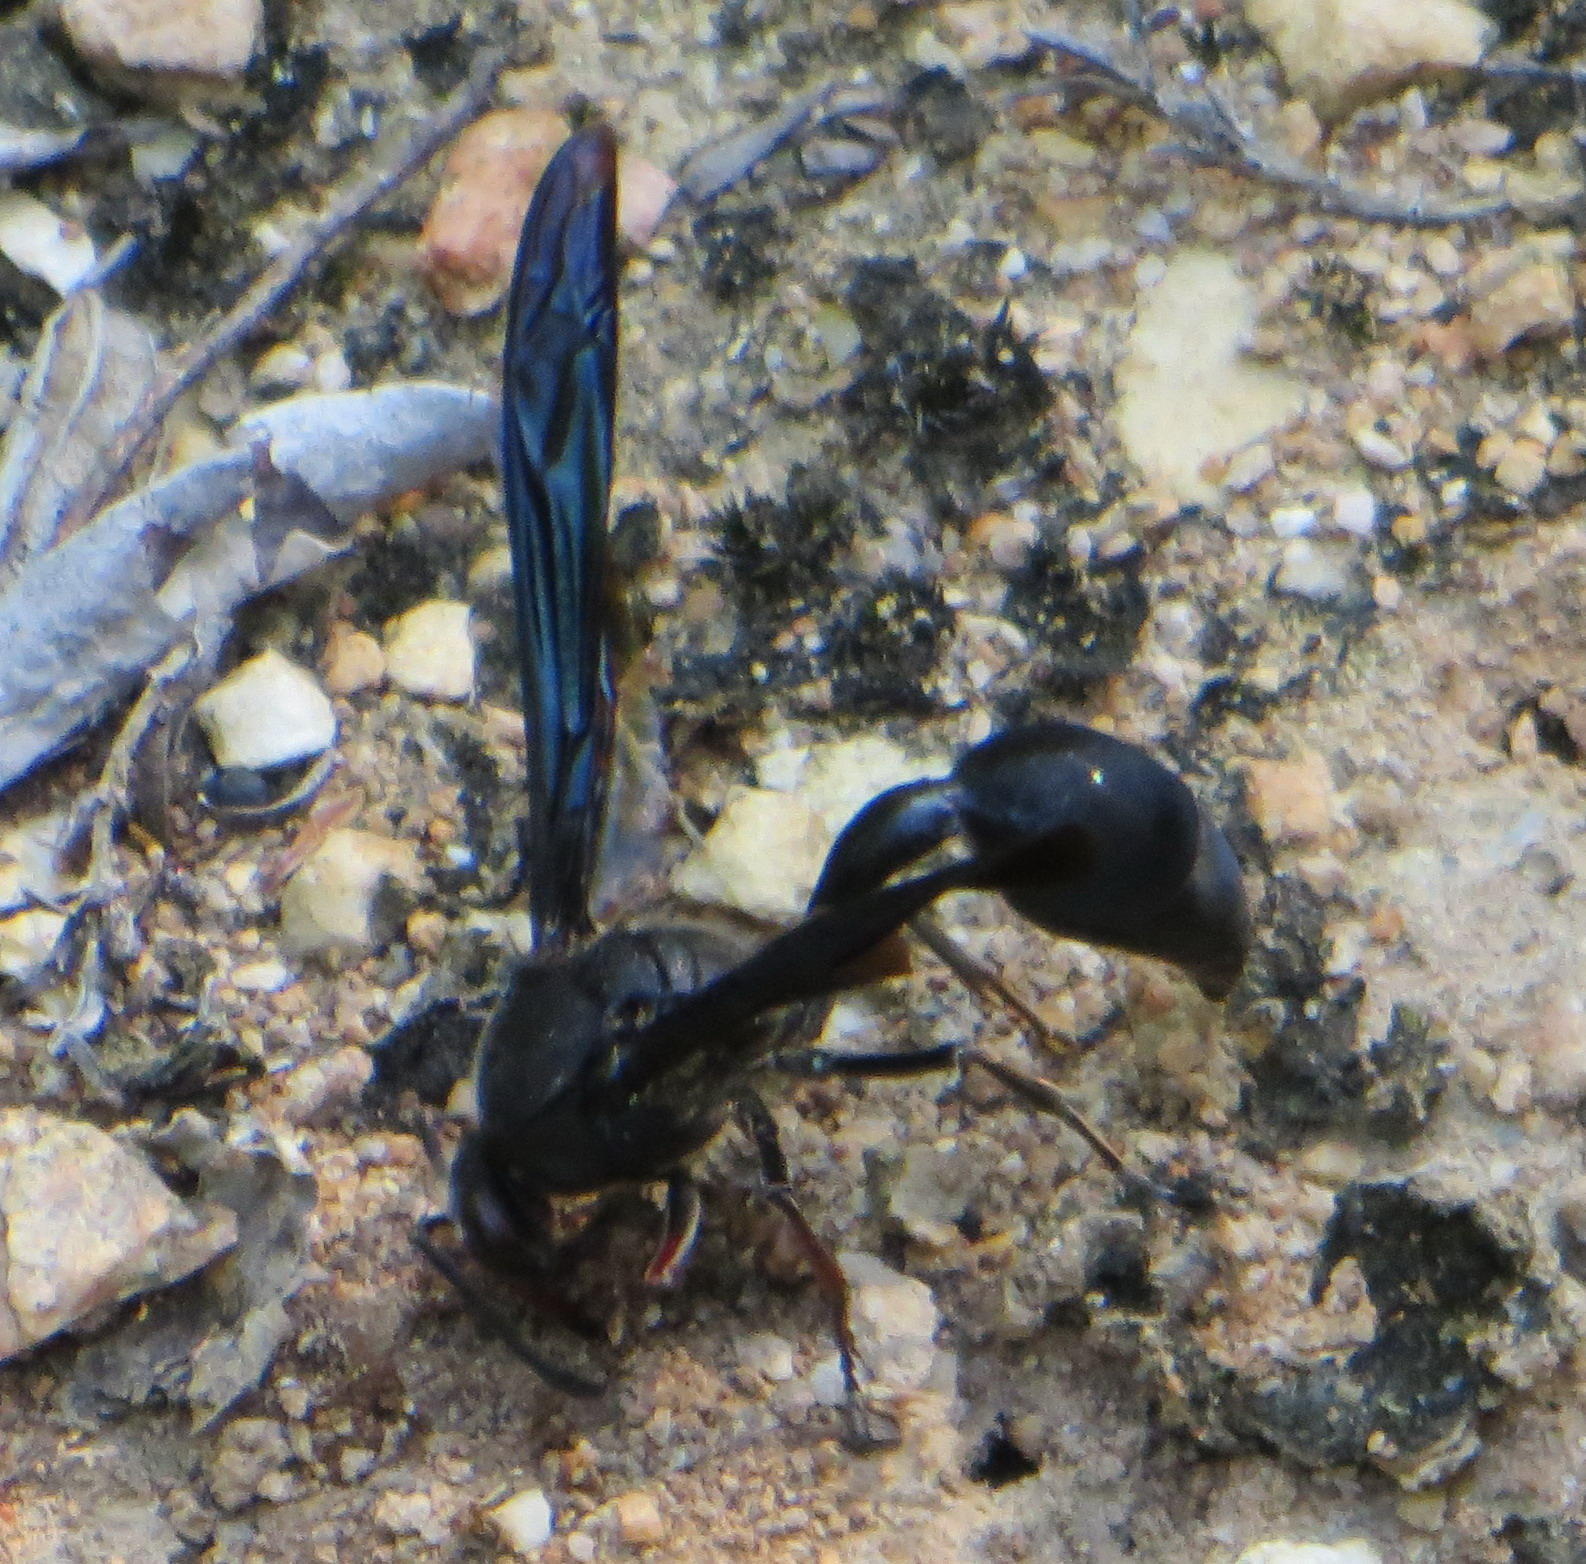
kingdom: Animalia
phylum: Arthropoda
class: Insecta
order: Hymenoptera
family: Eumenidae
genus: Delta
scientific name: Delta bonellii
